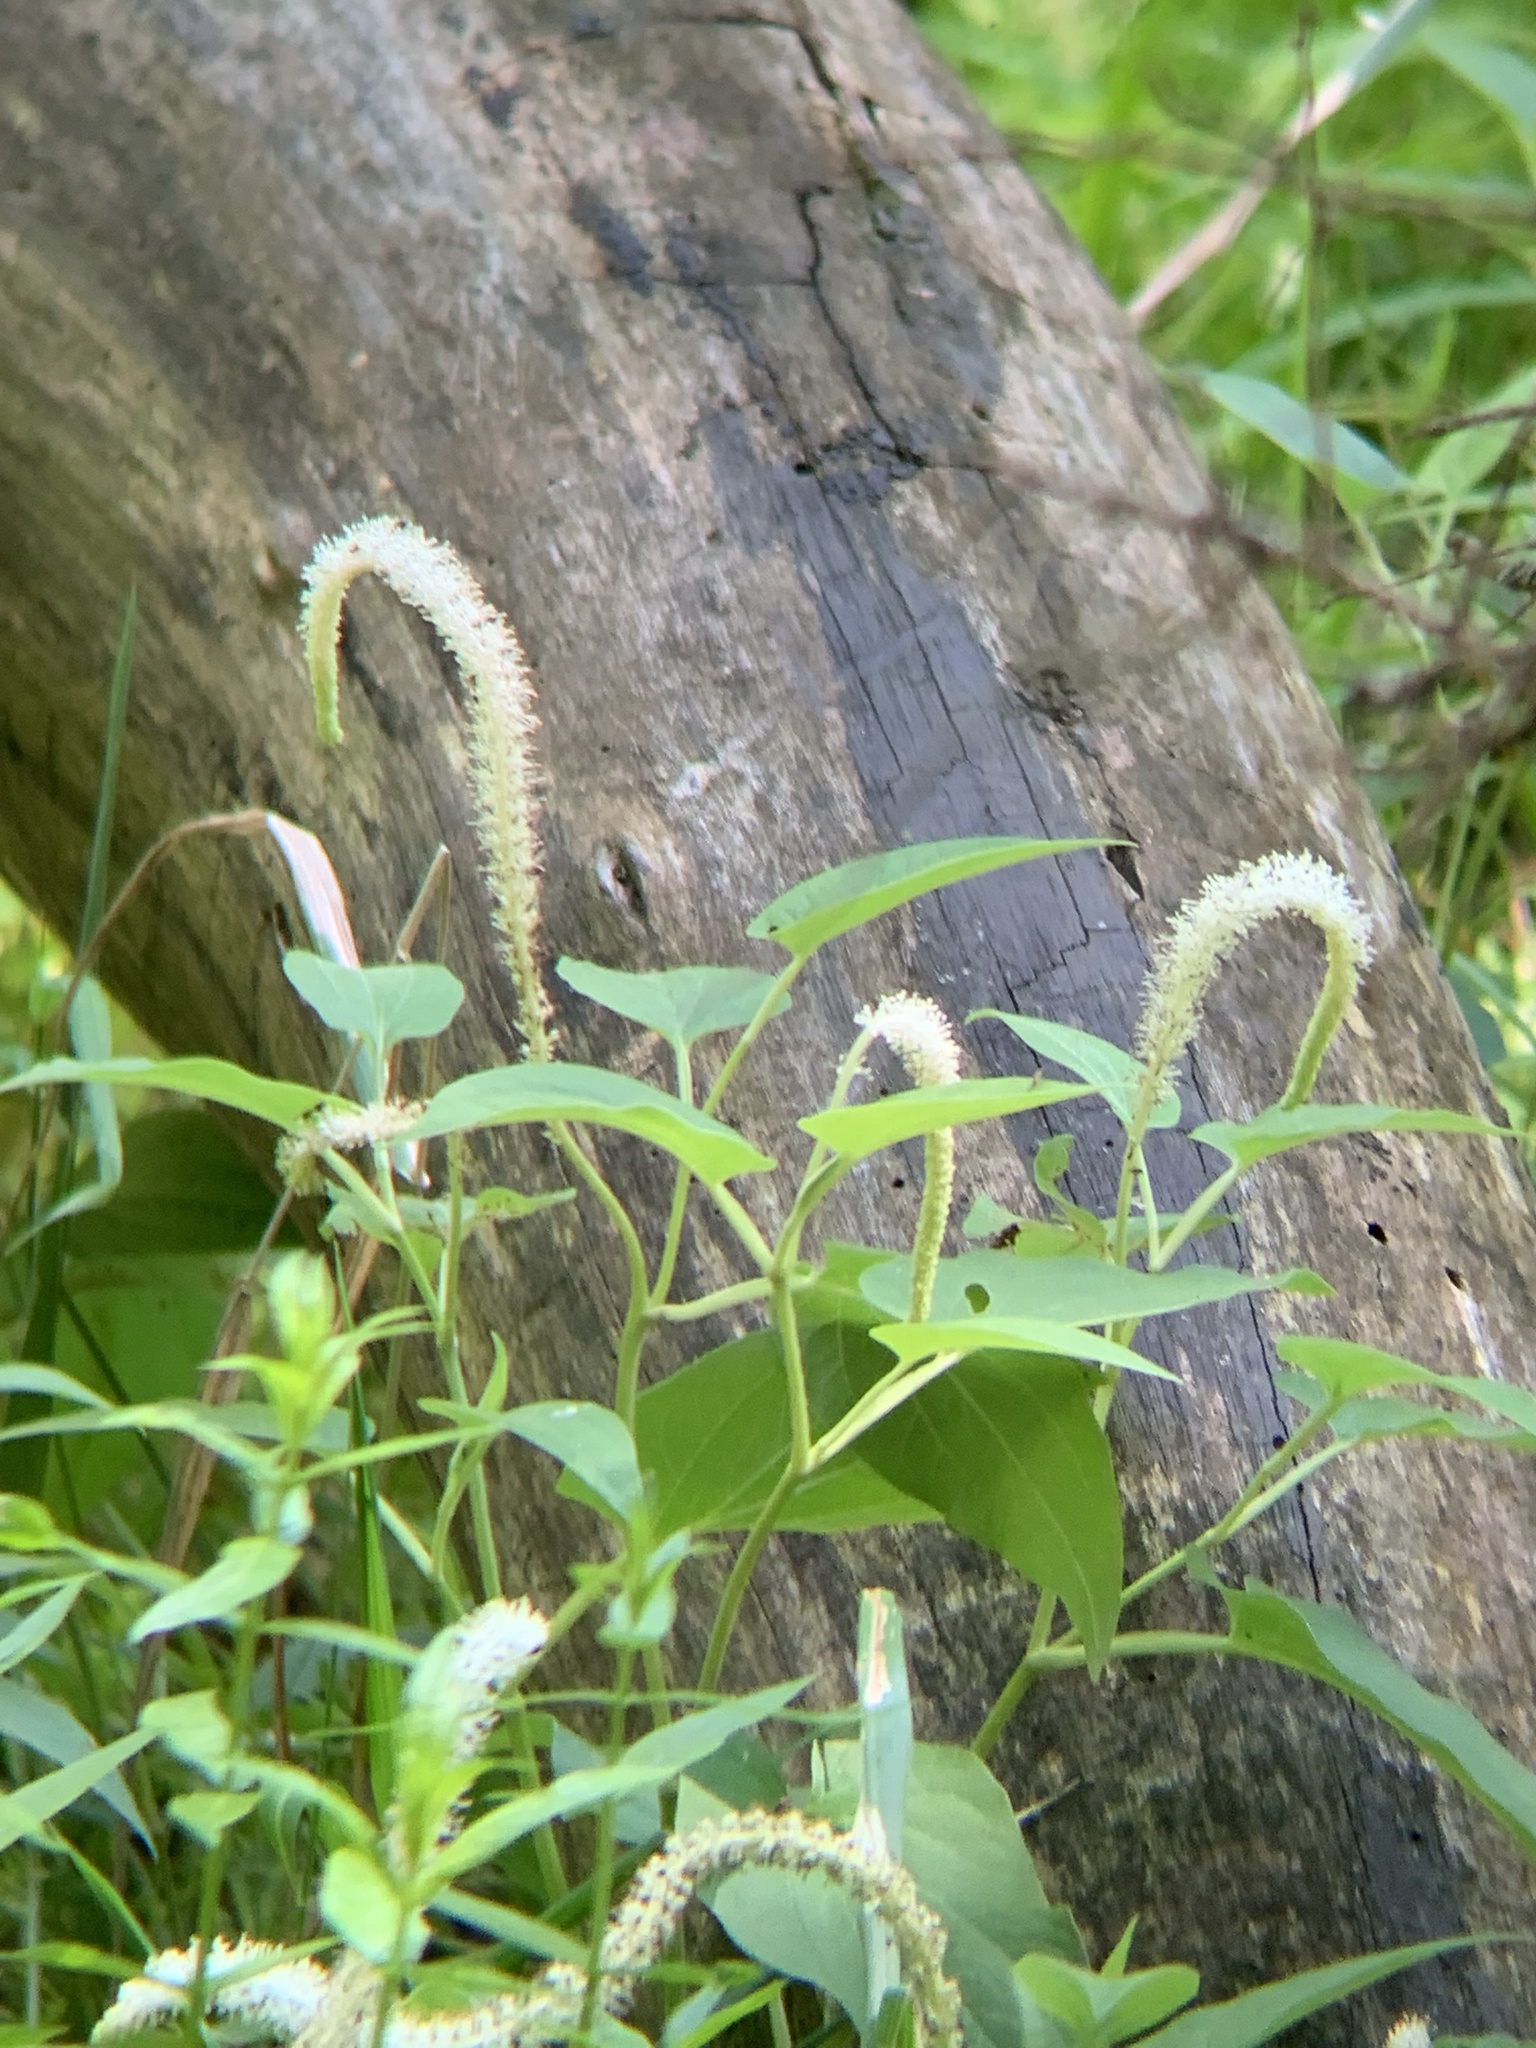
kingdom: Plantae
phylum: Tracheophyta
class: Magnoliopsida
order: Piperales
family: Saururaceae
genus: Saururus
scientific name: Saururus cernuus
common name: Lizard's-tail
